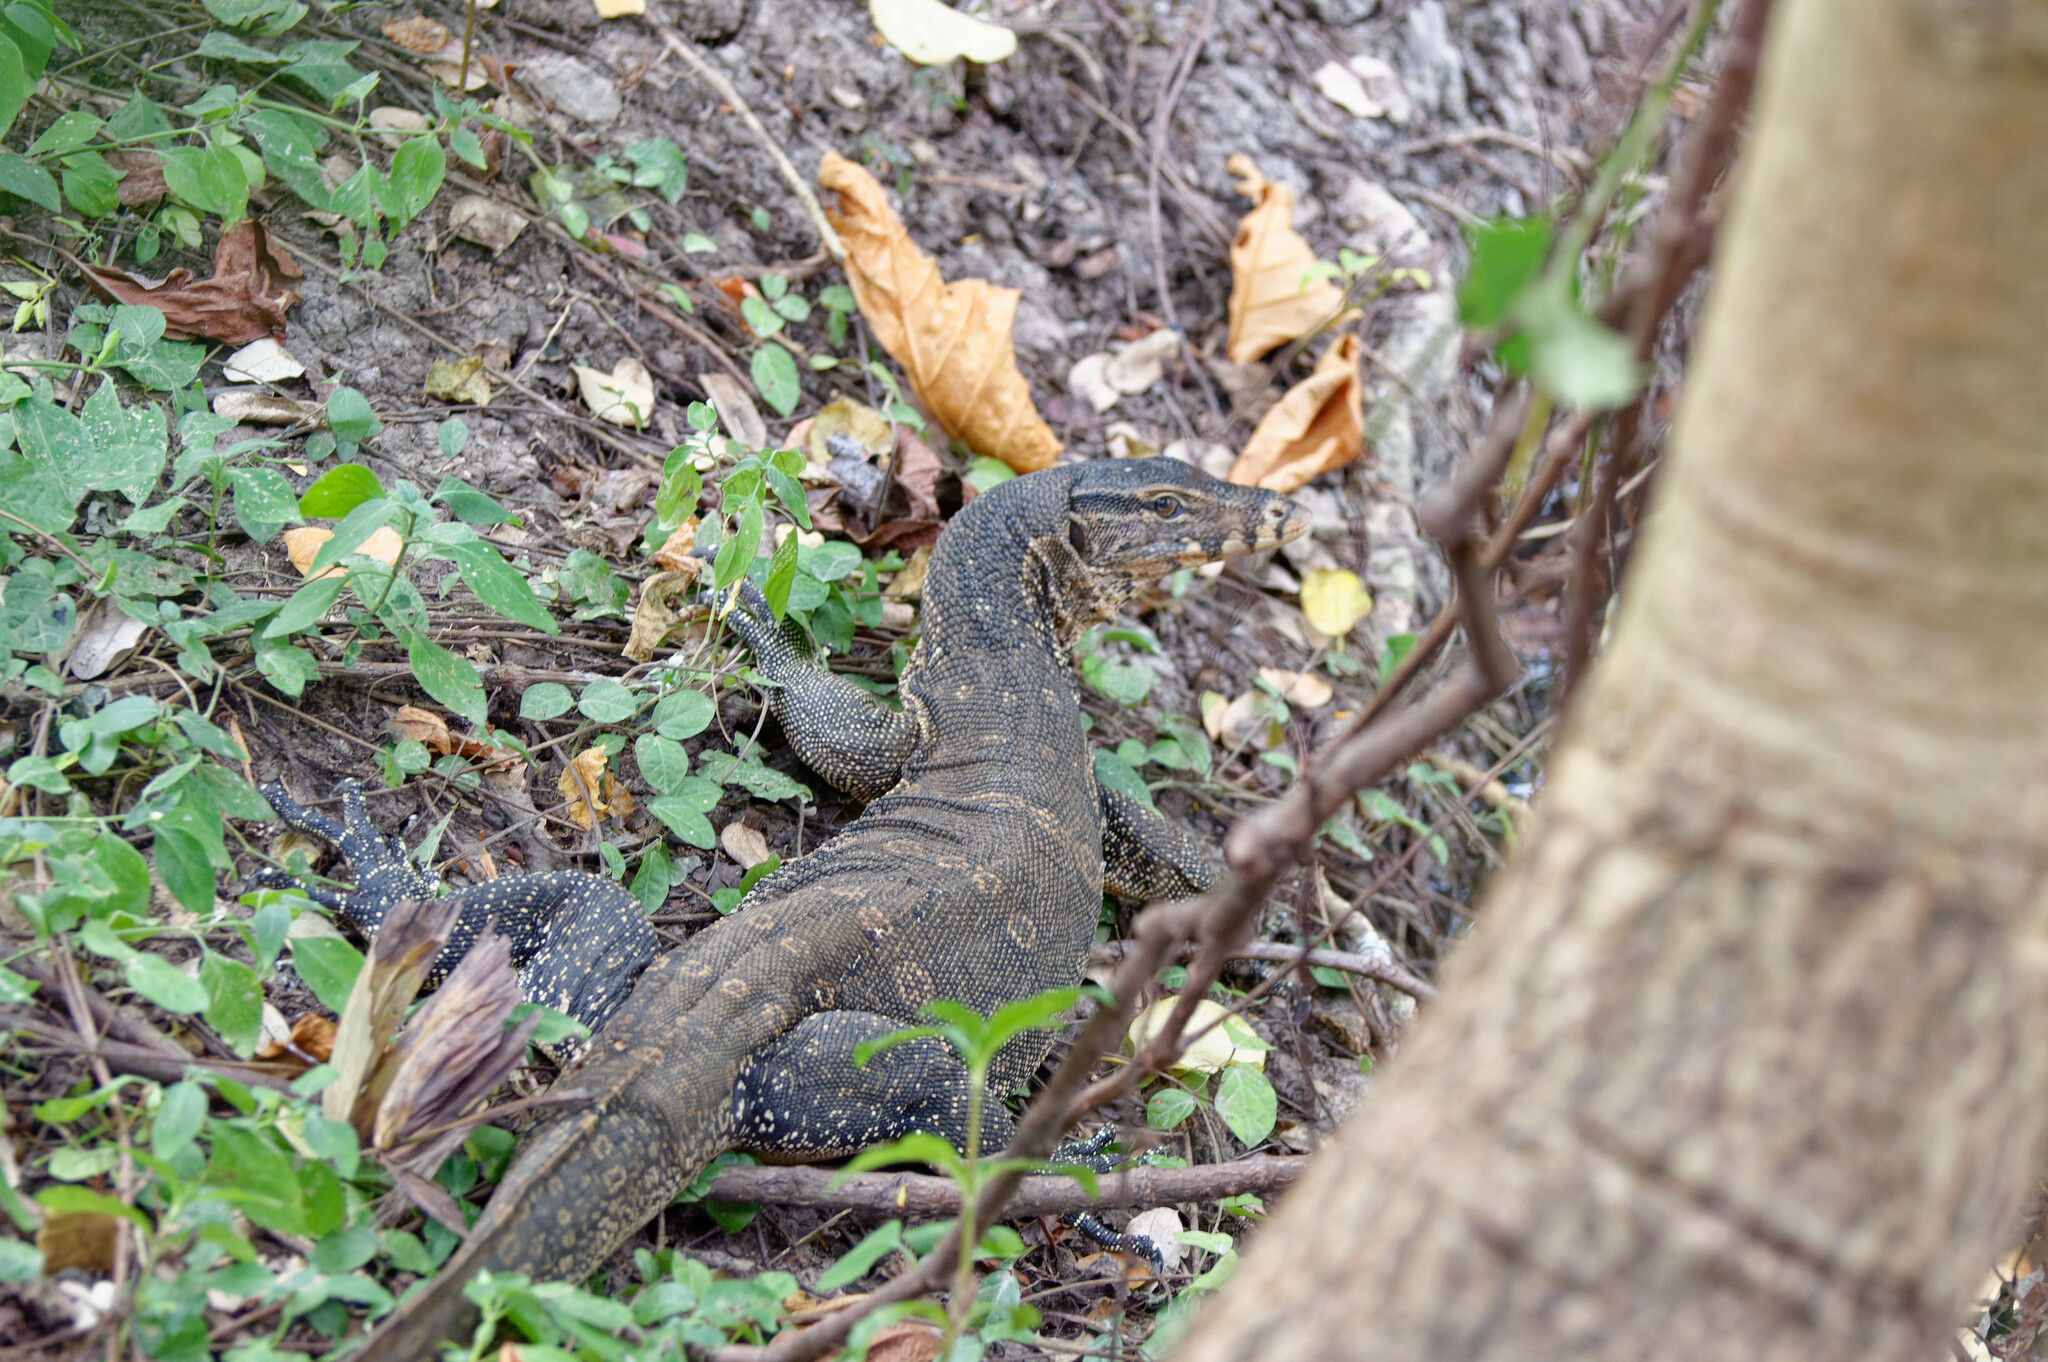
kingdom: Animalia
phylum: Chordata
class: Squamata
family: Varanidae
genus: Varanus
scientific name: Varanus salvator
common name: Common water monitor
